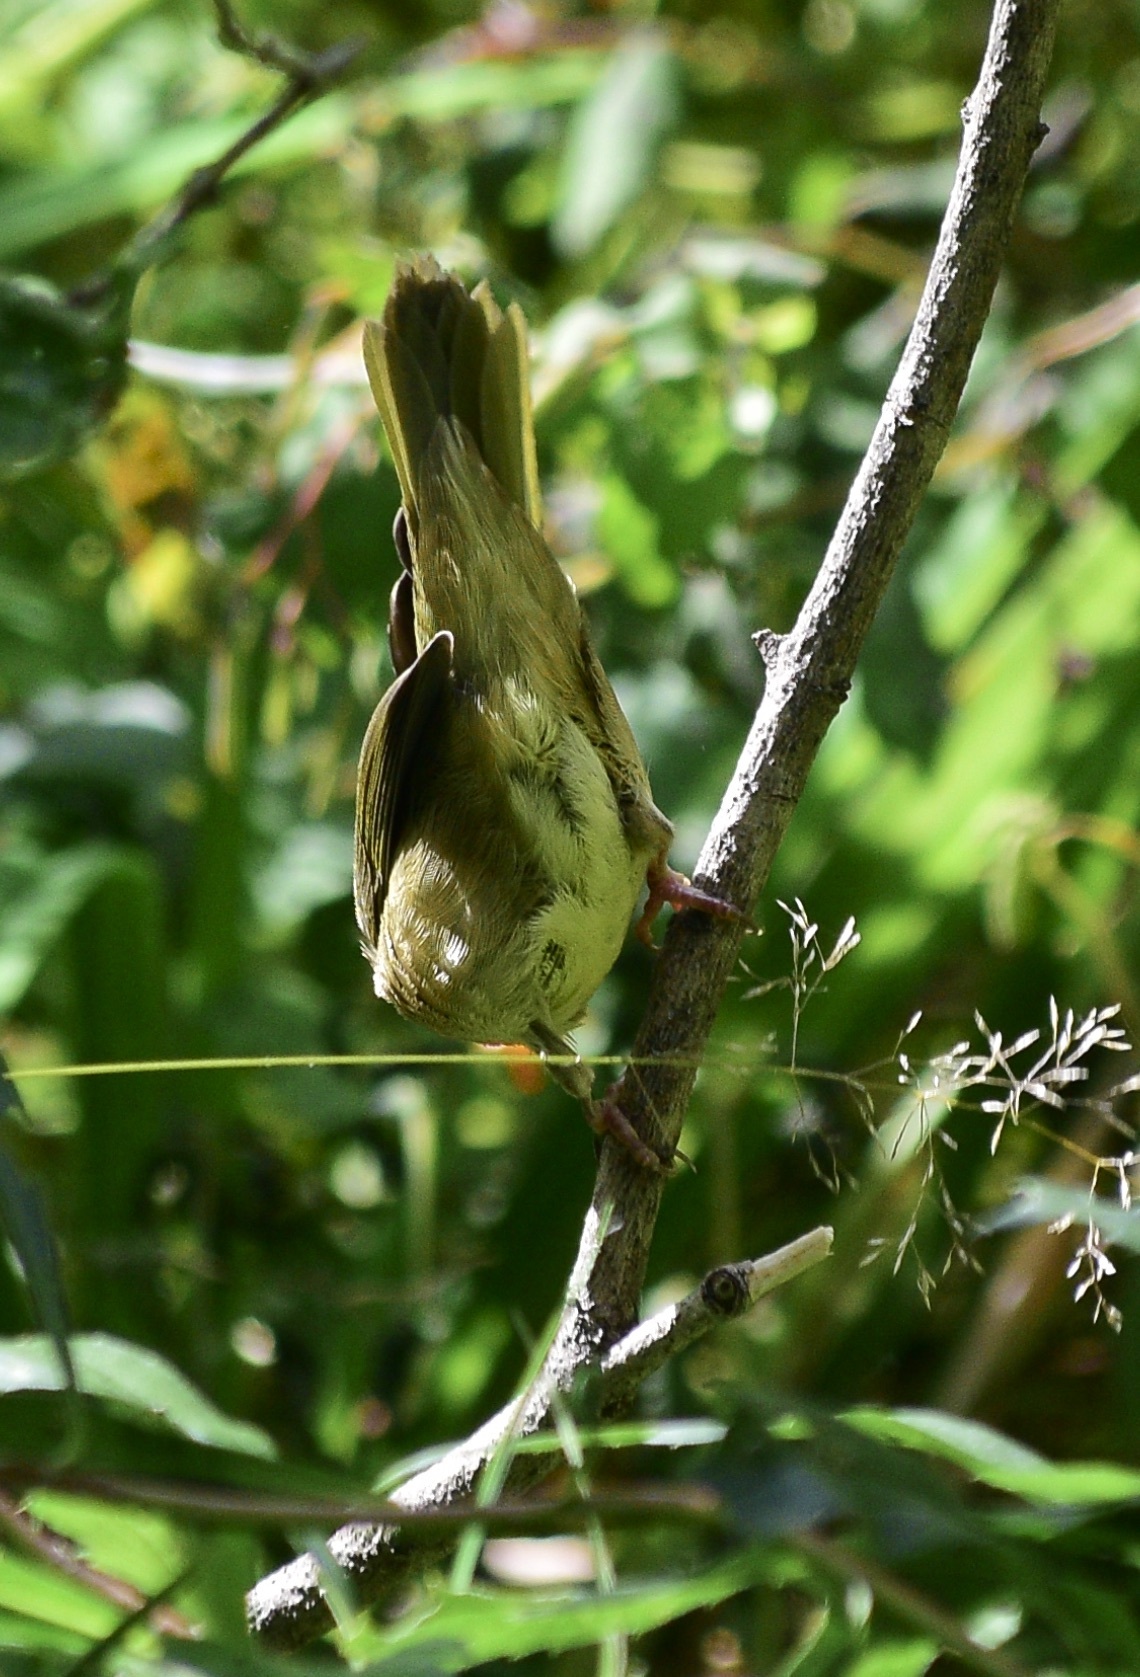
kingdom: Animalia
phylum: Chordata
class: Aves
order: Passeriformes
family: Parulidae
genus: Geothlypis
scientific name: Geothlypis trichas
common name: Common yellowthroat
